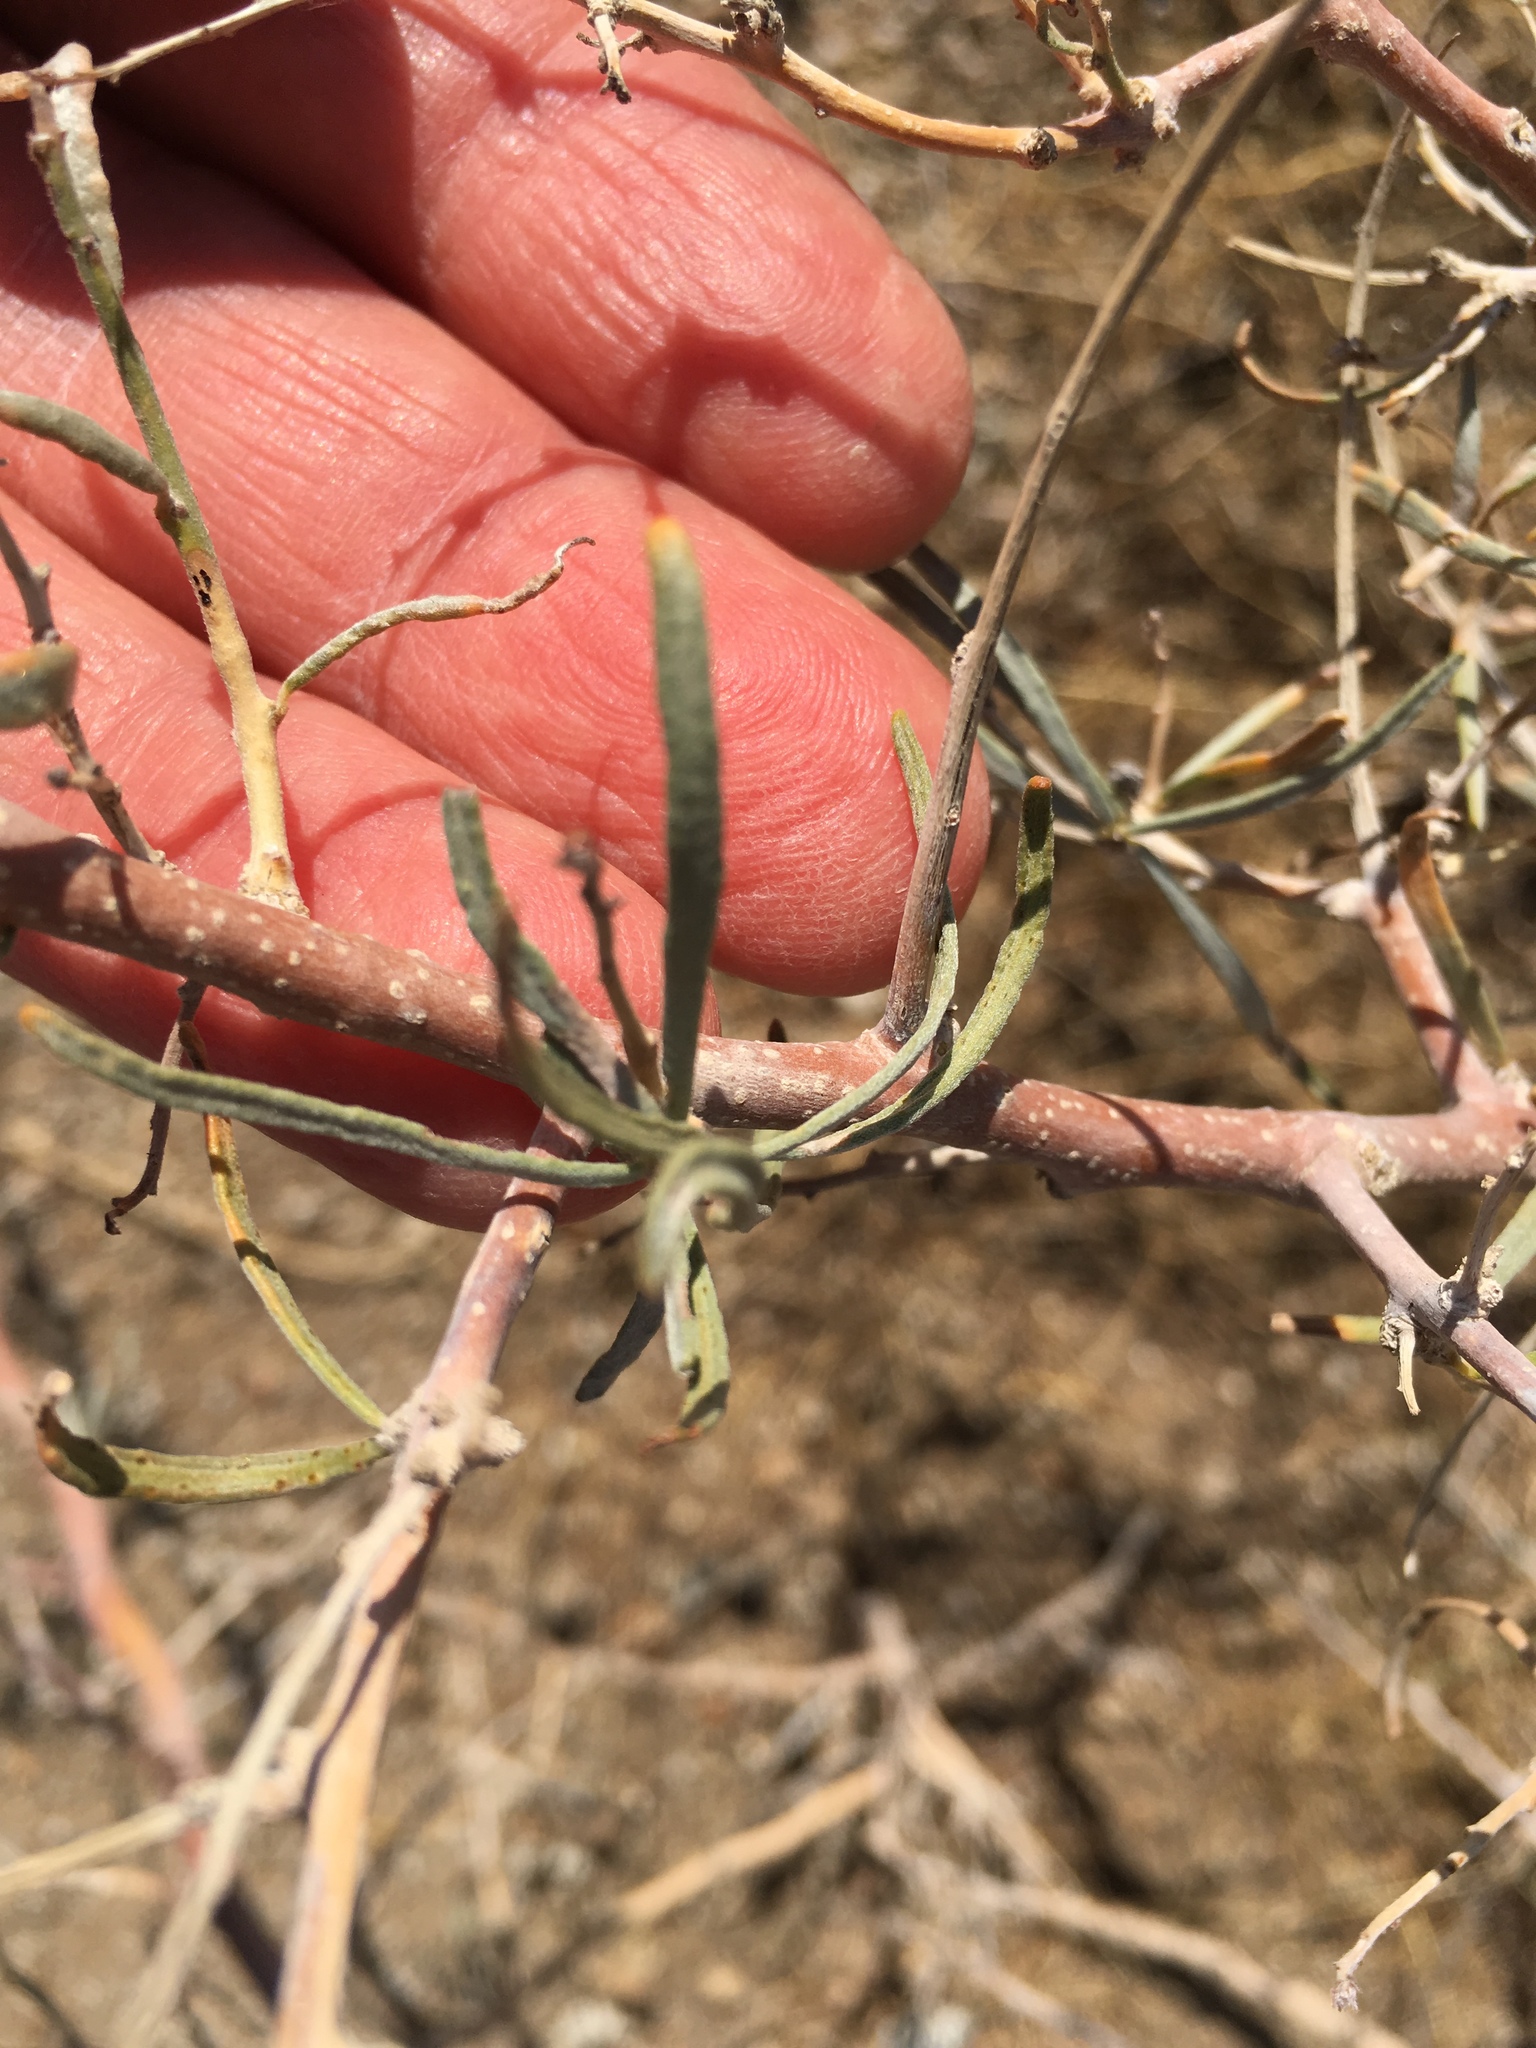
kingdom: Plantae
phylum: Tracheophyta
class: Magnoliopsida
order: Fabales
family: Fabaceae
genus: Psorothamnus
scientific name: Psorothamnus schottii
